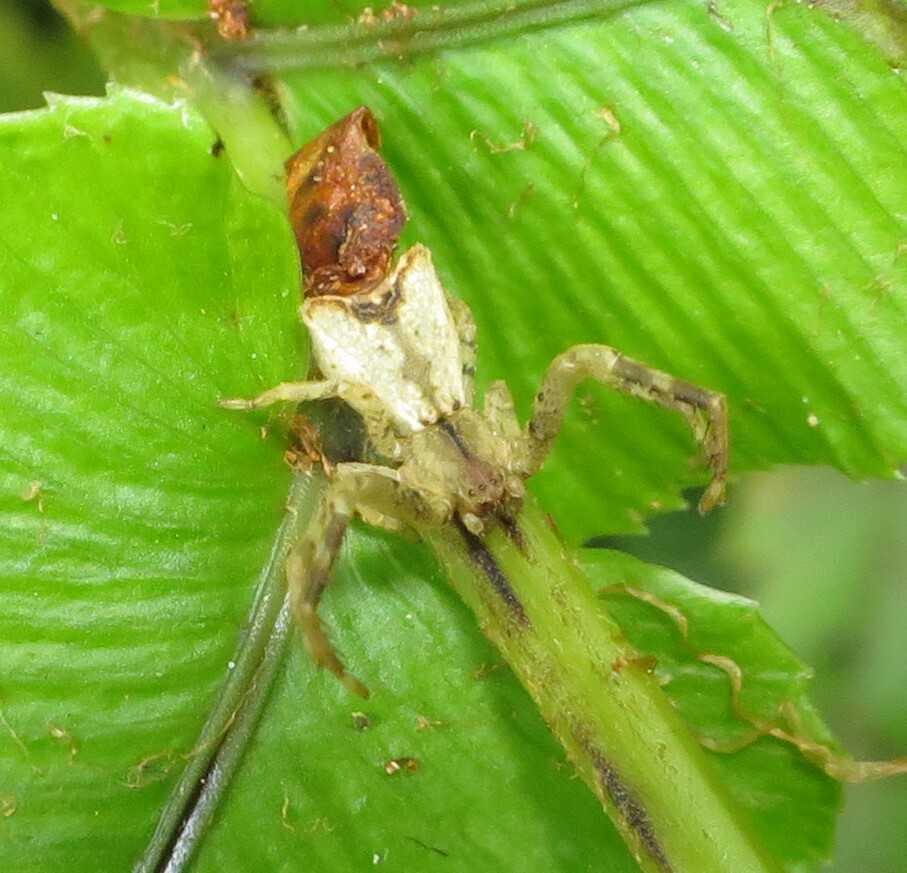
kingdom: Animalia
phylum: Arthropoda
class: Arachnida
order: Araneae
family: Thomisidae
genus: Sidymella
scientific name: Sidymella angularis
